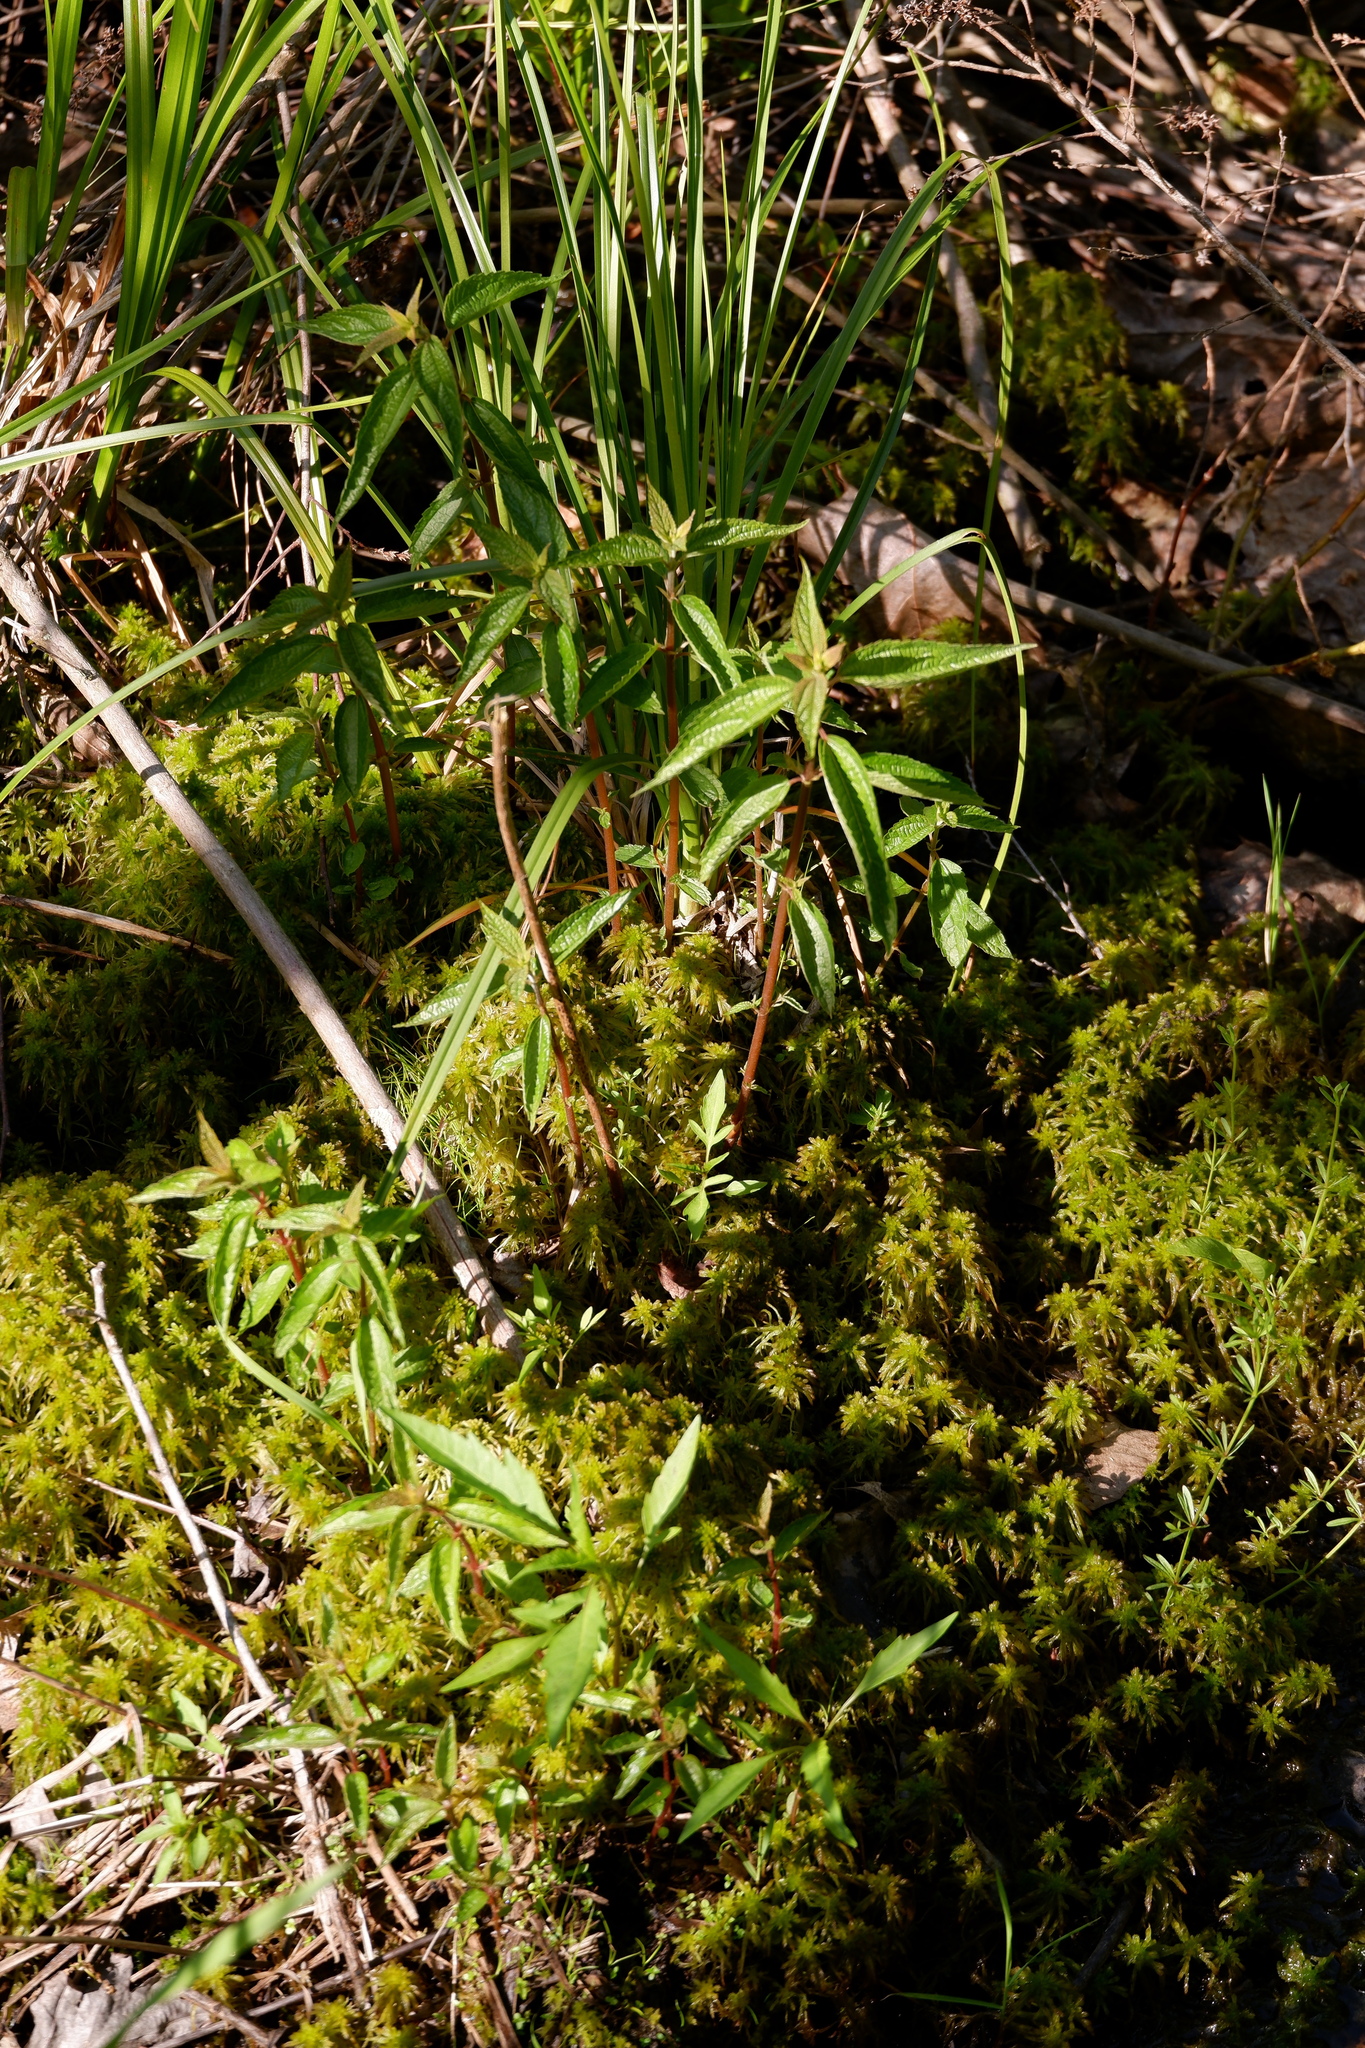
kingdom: Plantae
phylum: Tracheophyta
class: Magnoliopsida
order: Rosales
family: Urticaceae
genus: Boehmeria
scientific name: Boehmeria cylindrica
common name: Bog-hemp
